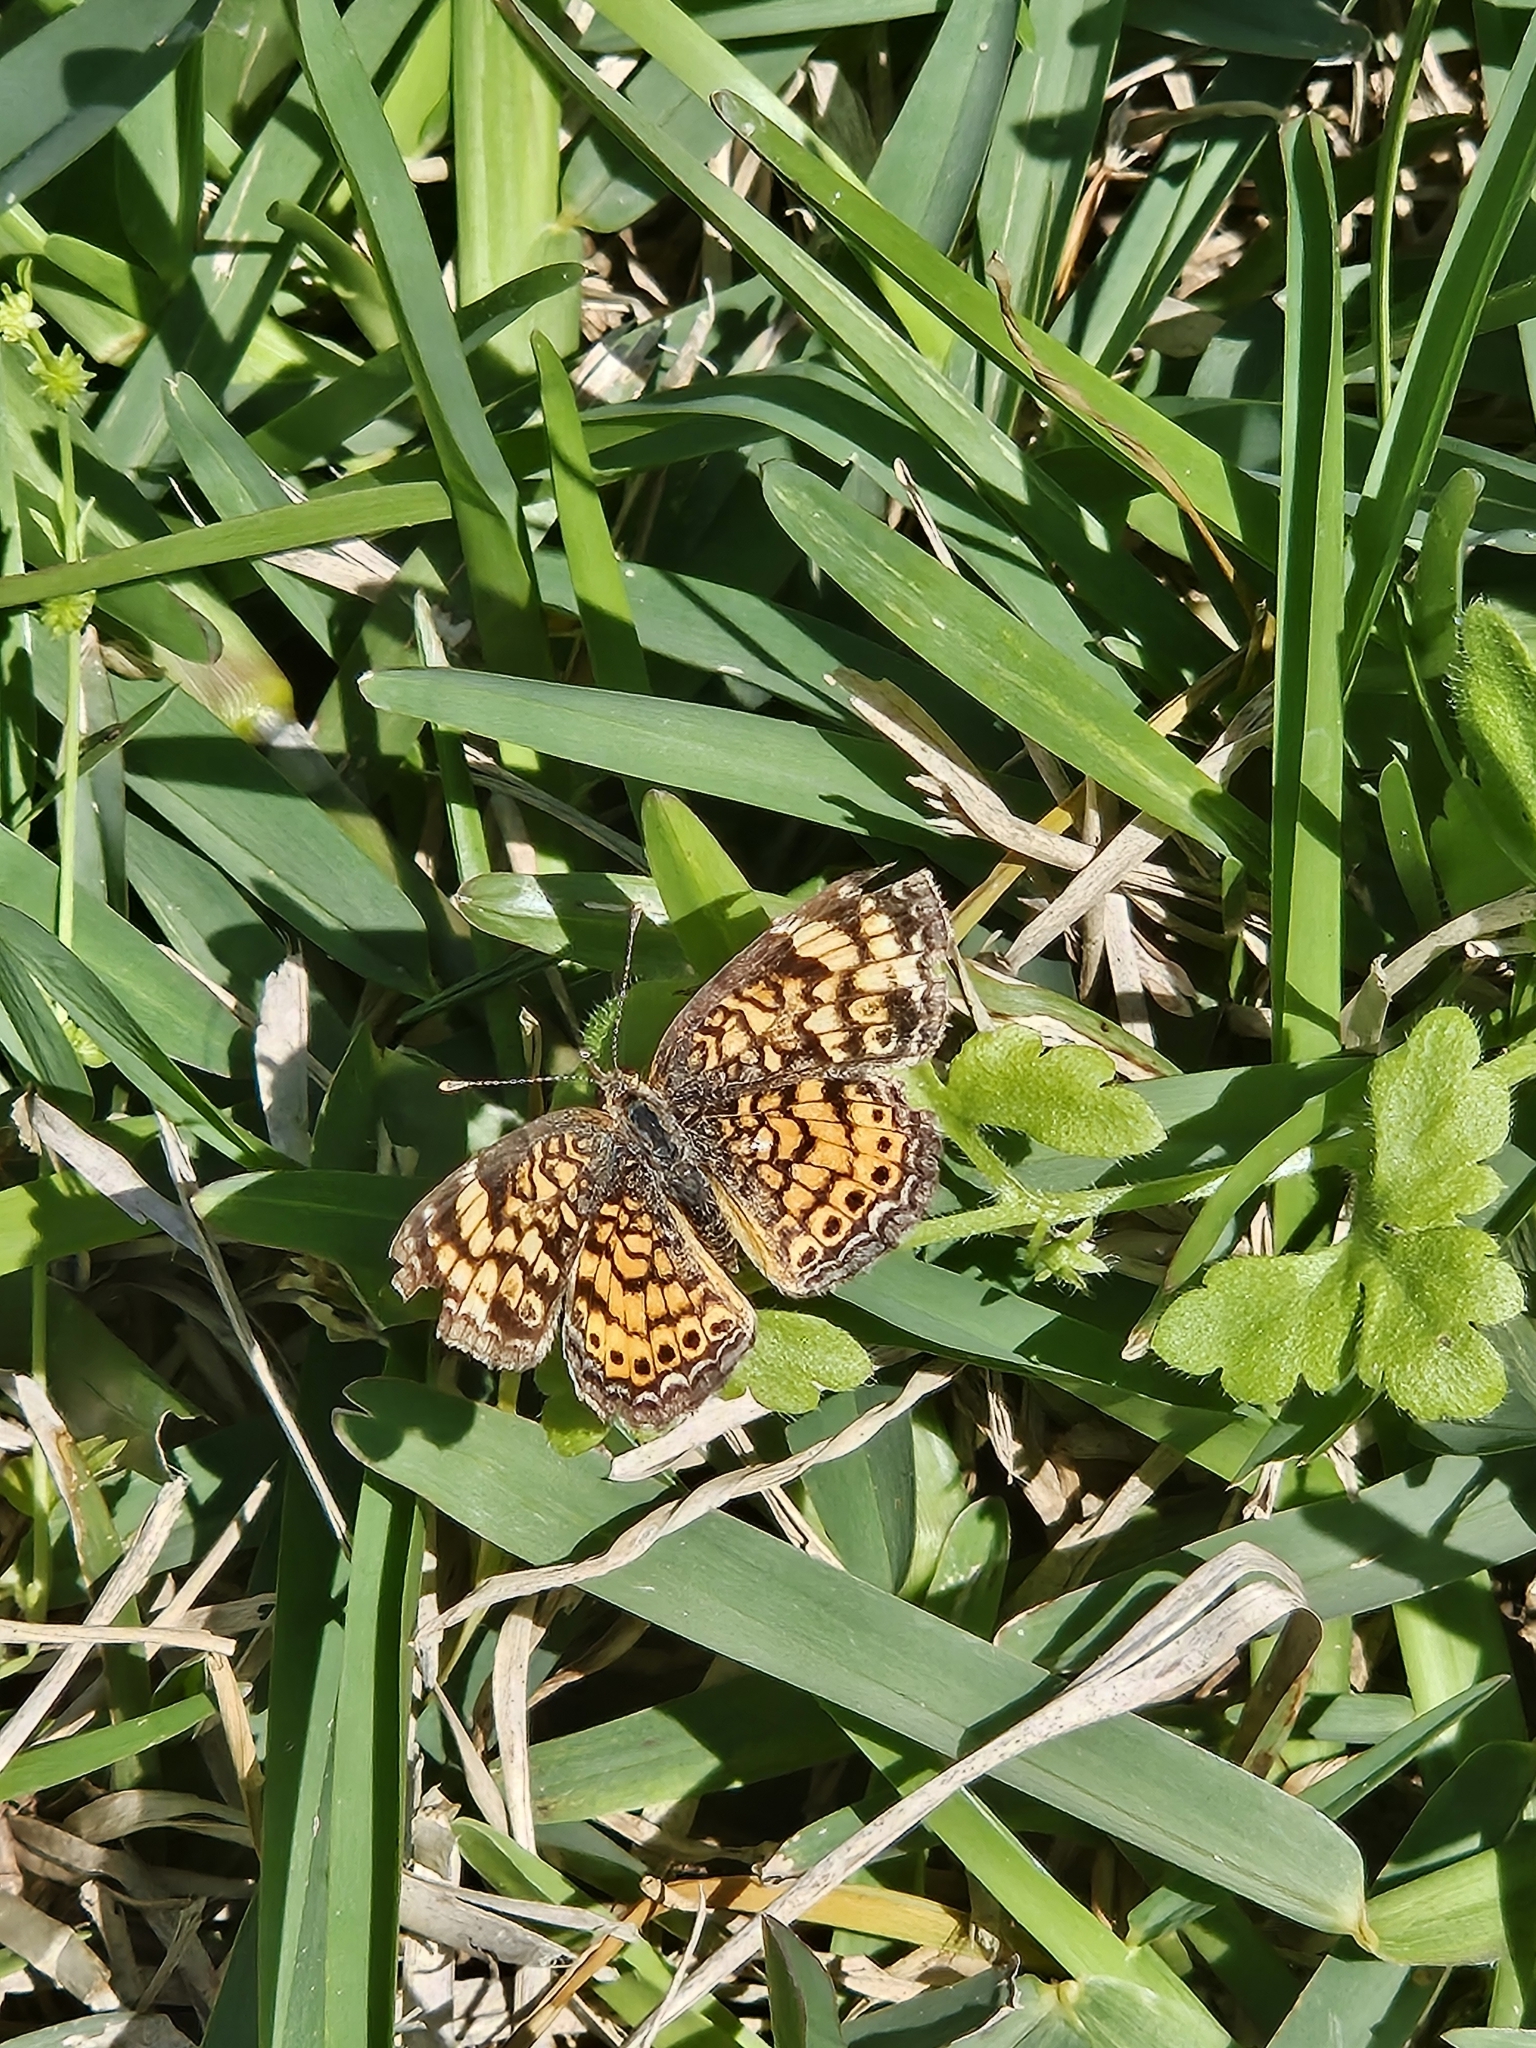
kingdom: Animalia
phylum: Arthropoda
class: Insecta
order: Lepidoptera
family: Nymphalidae
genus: Phyciodes
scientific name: Phyciodes tharos
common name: Pearl crescent
